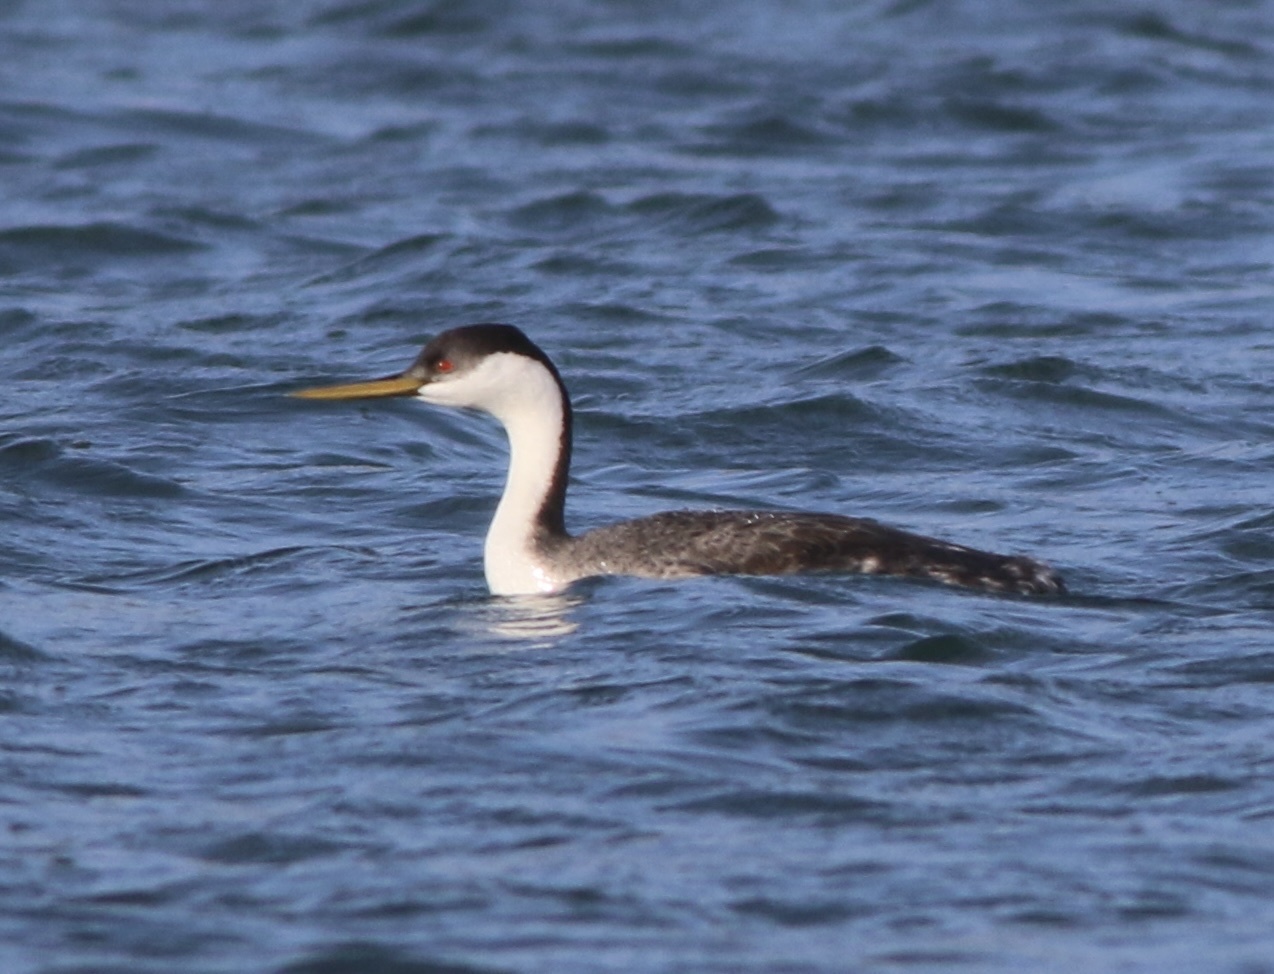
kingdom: Animalia
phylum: Chordata
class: Aves
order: Podicipediformes
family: Podicipedidae
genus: Aechmophorus
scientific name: Aechmophorus occidentalis
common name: Western grebe
